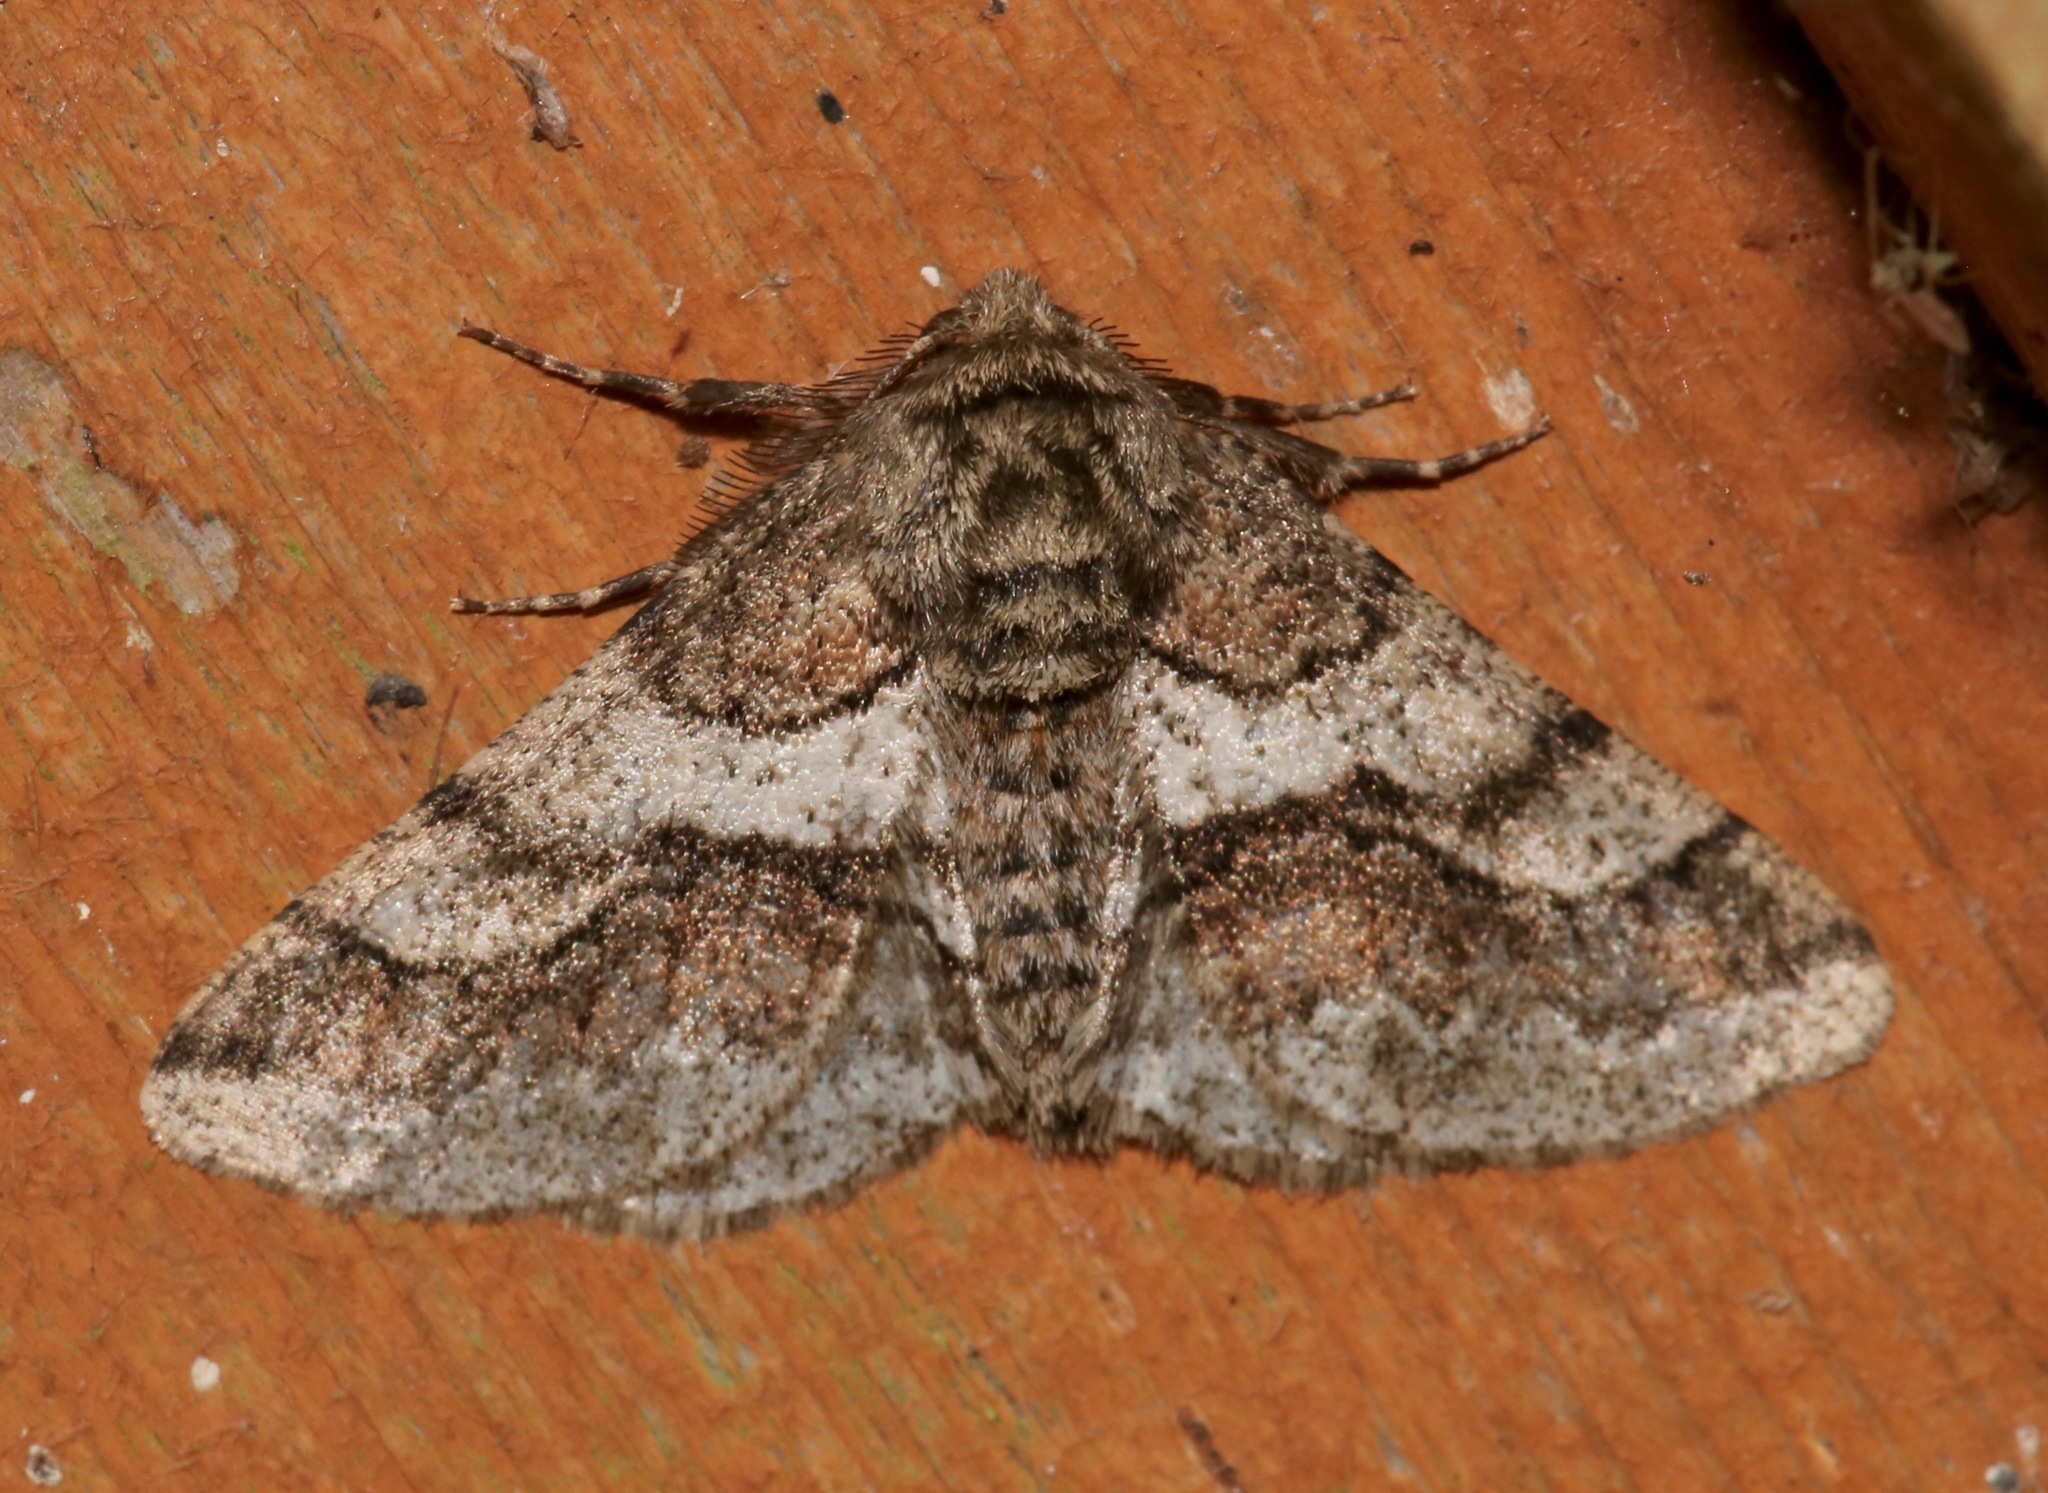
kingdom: Animalia
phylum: Arthropoda
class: Insecta
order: Lepidoptera
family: Geometridae
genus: Lycia
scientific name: Lycia ypsilon
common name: Wooly gray
